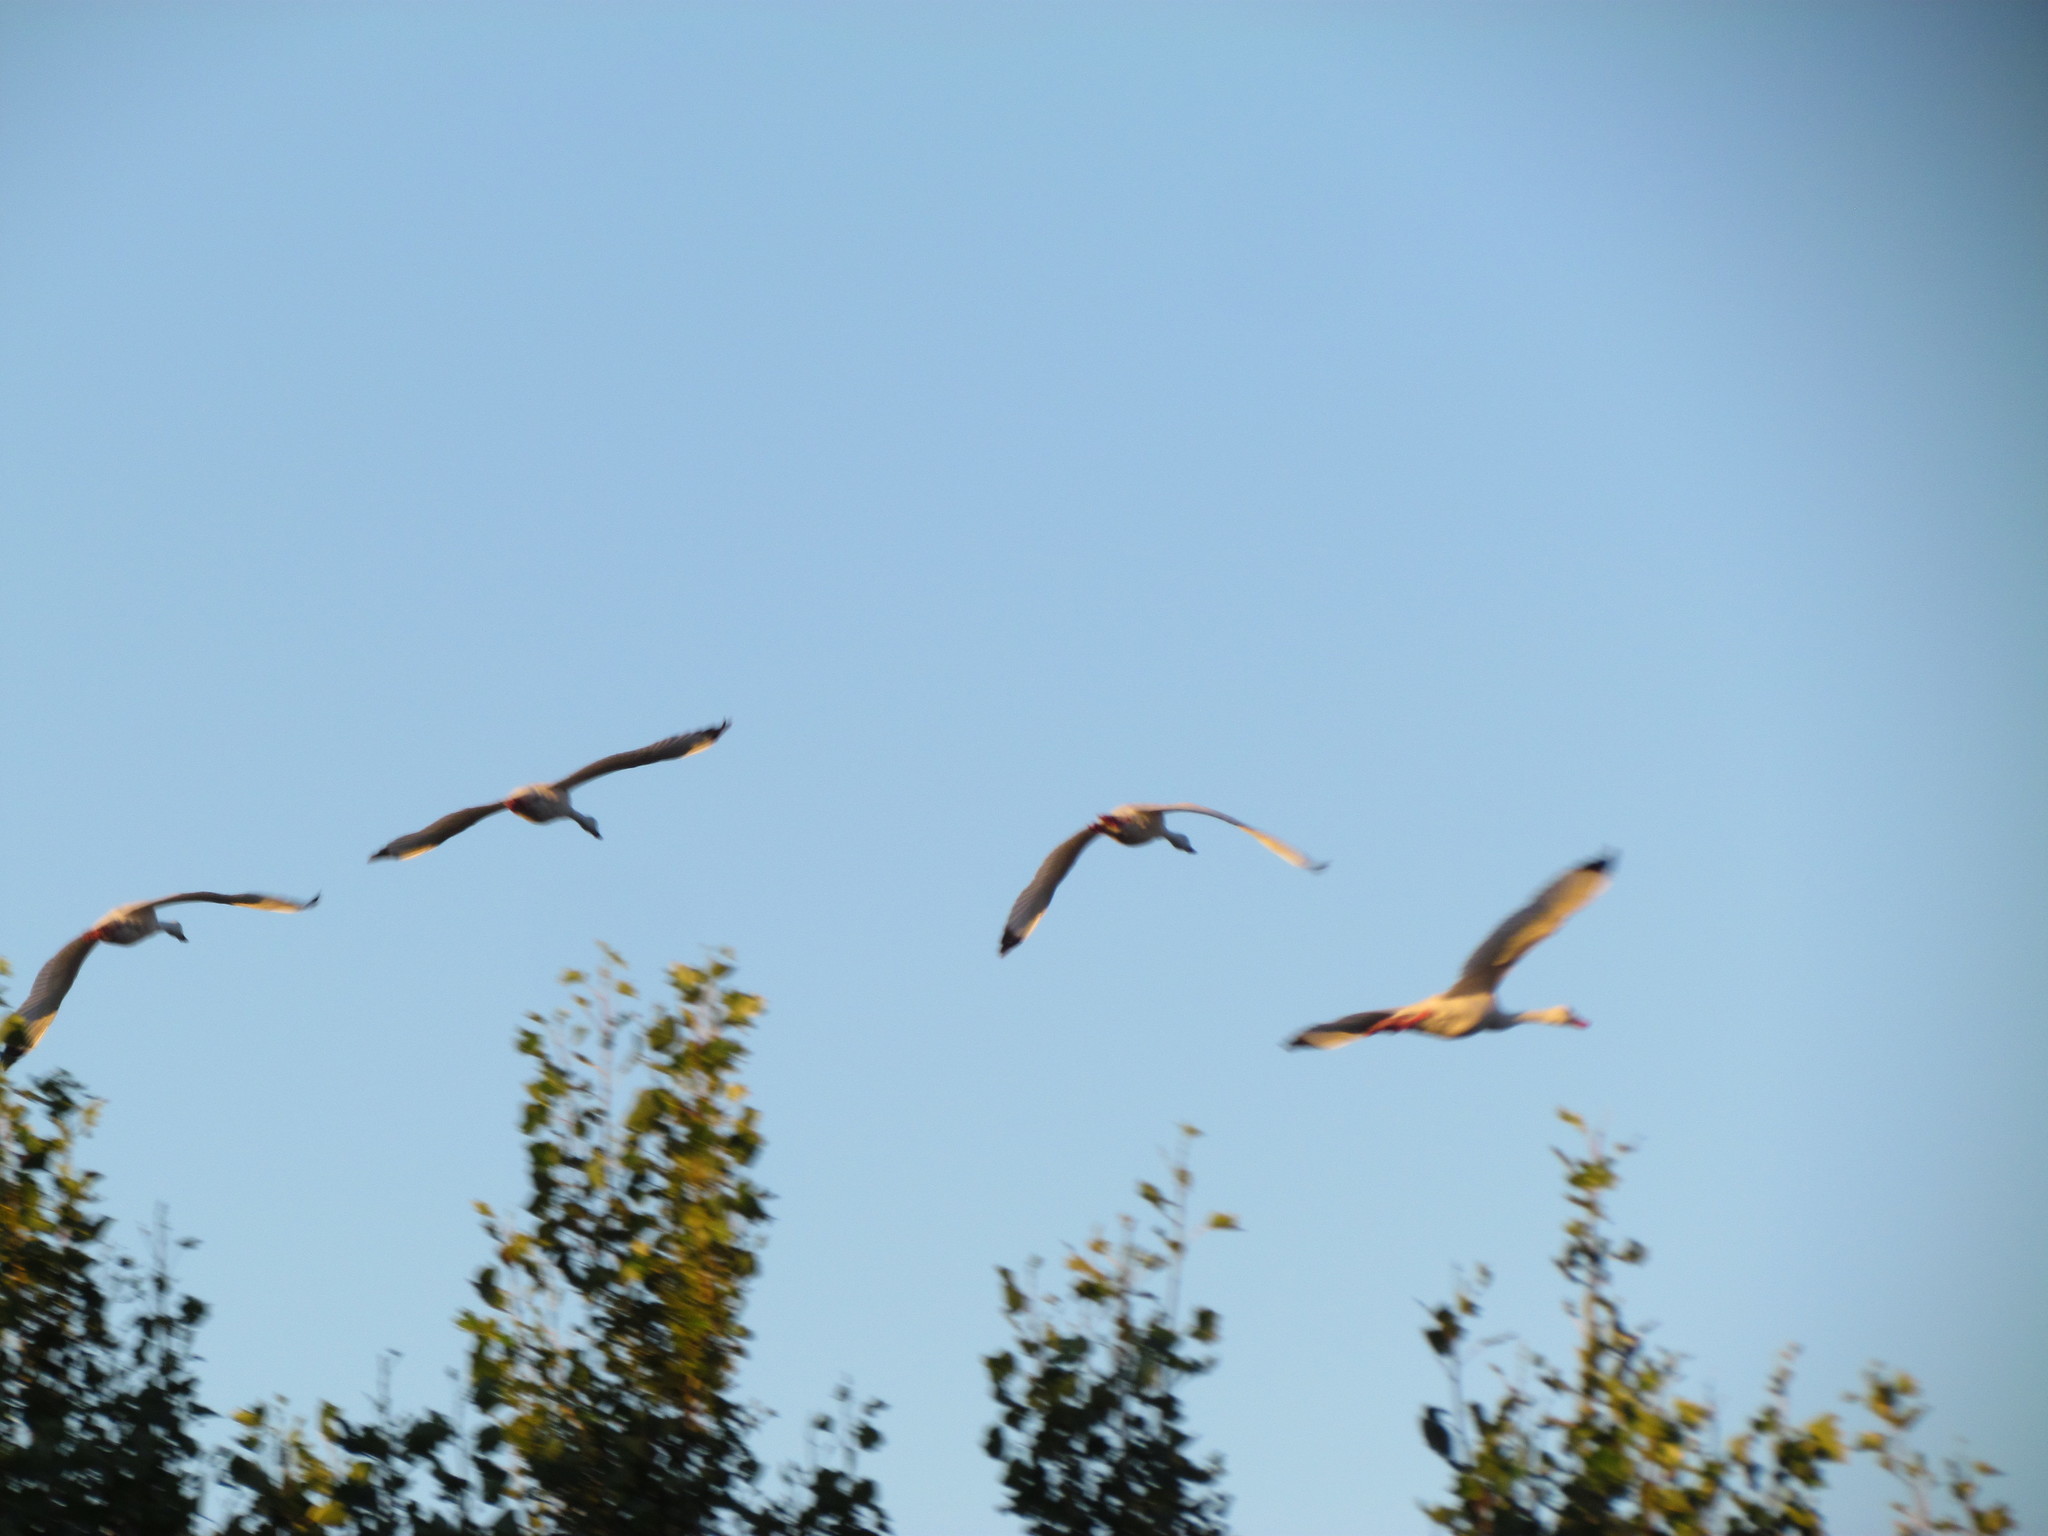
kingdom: Animalia
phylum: Chordata
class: Aves
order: Anseriformes
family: Anatidae
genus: Coscoroba
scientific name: Coscoroba coscoroba
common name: Coscoroba swan
